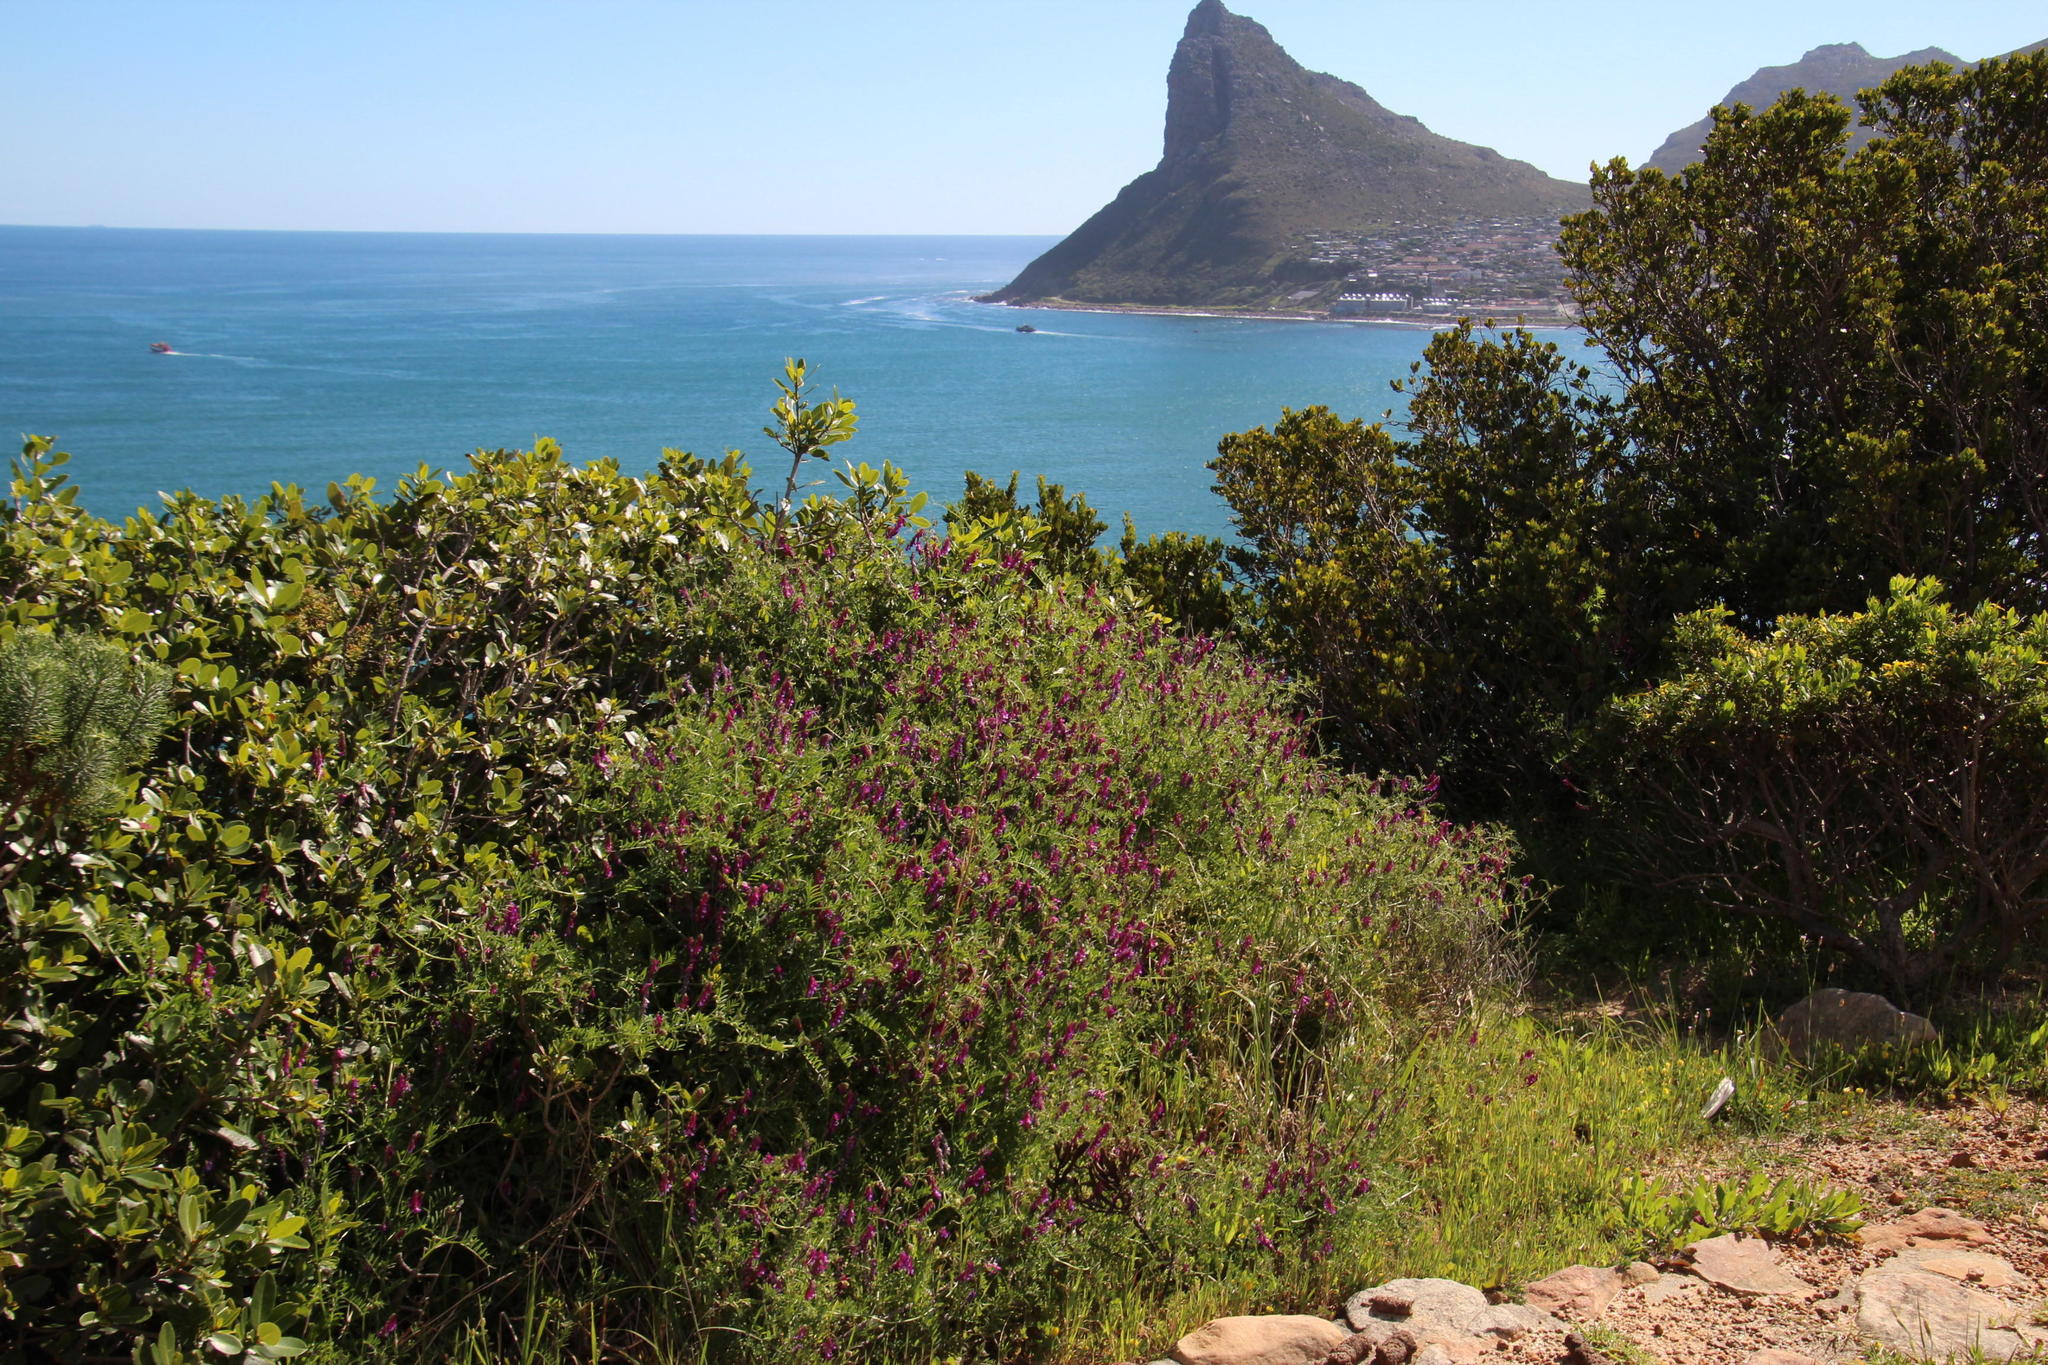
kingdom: Plantae
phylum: Tracheophyta
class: Magnoliopsida
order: Fabales
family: Fabaceae
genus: Vicia
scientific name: Vicia eriocarpa
